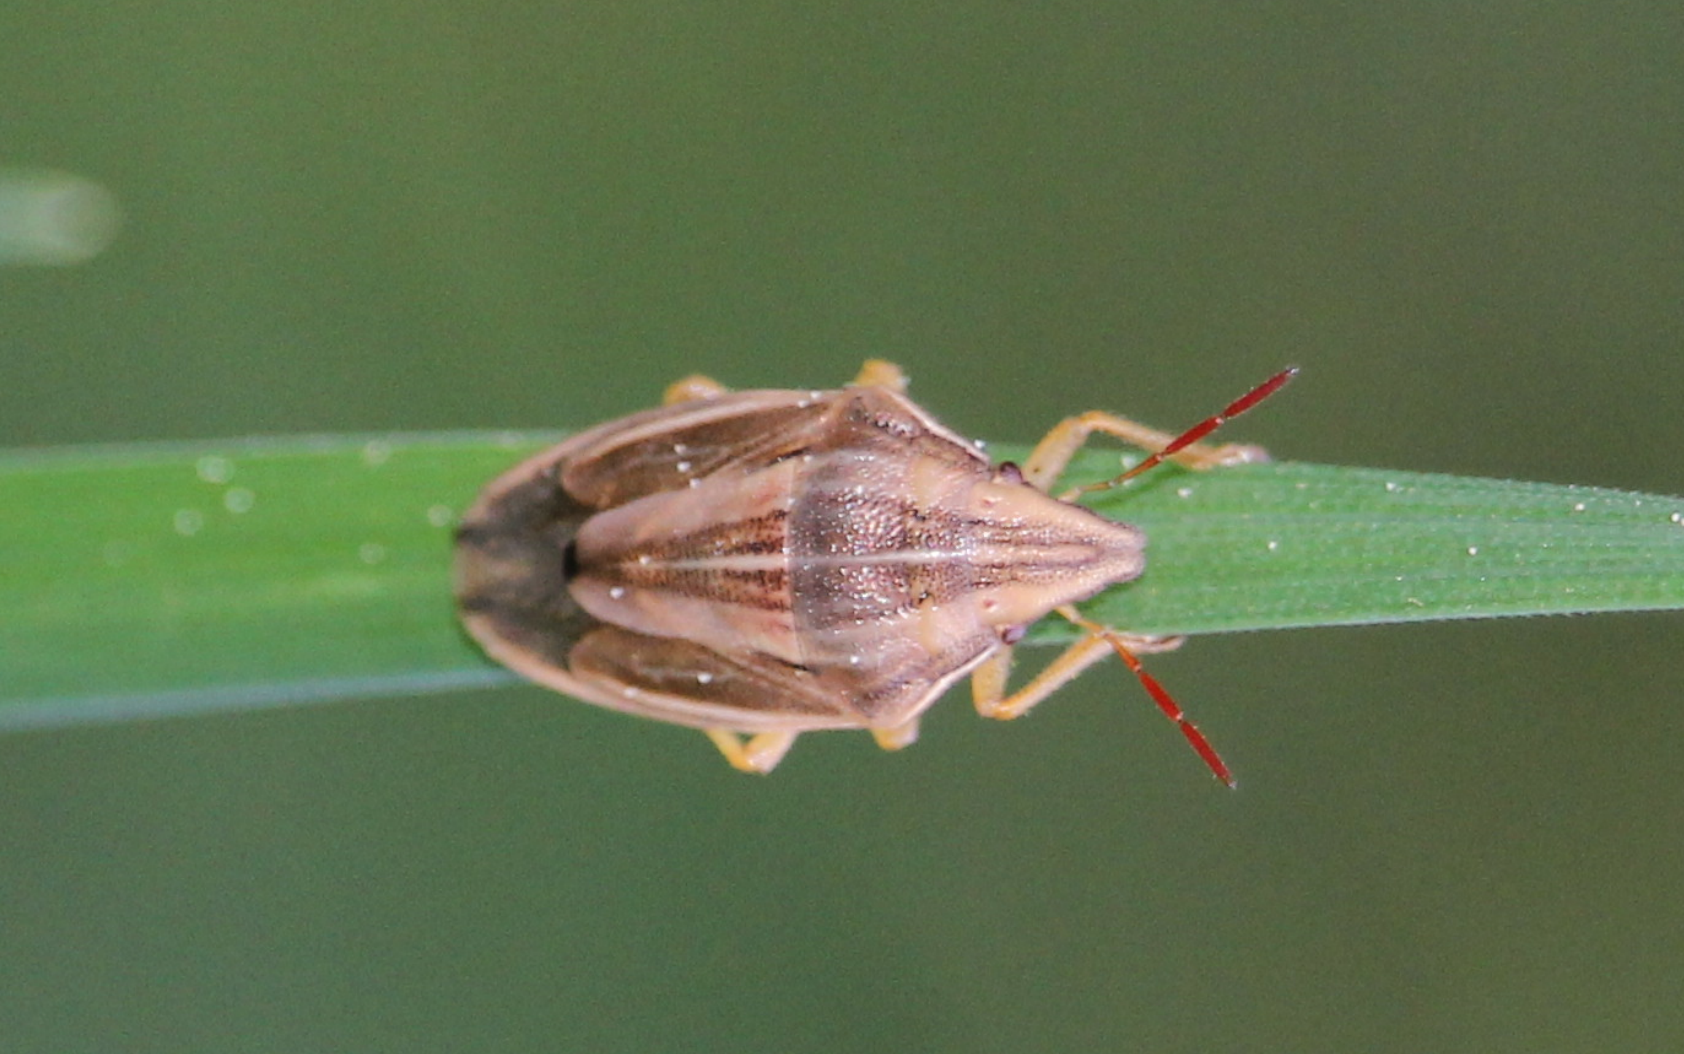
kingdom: Animalia
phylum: Arthropoda
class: Insecta
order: Hemiptera
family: Pentatomidae
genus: Aelia
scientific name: Aelia acuminata
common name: Bishop's mitre
